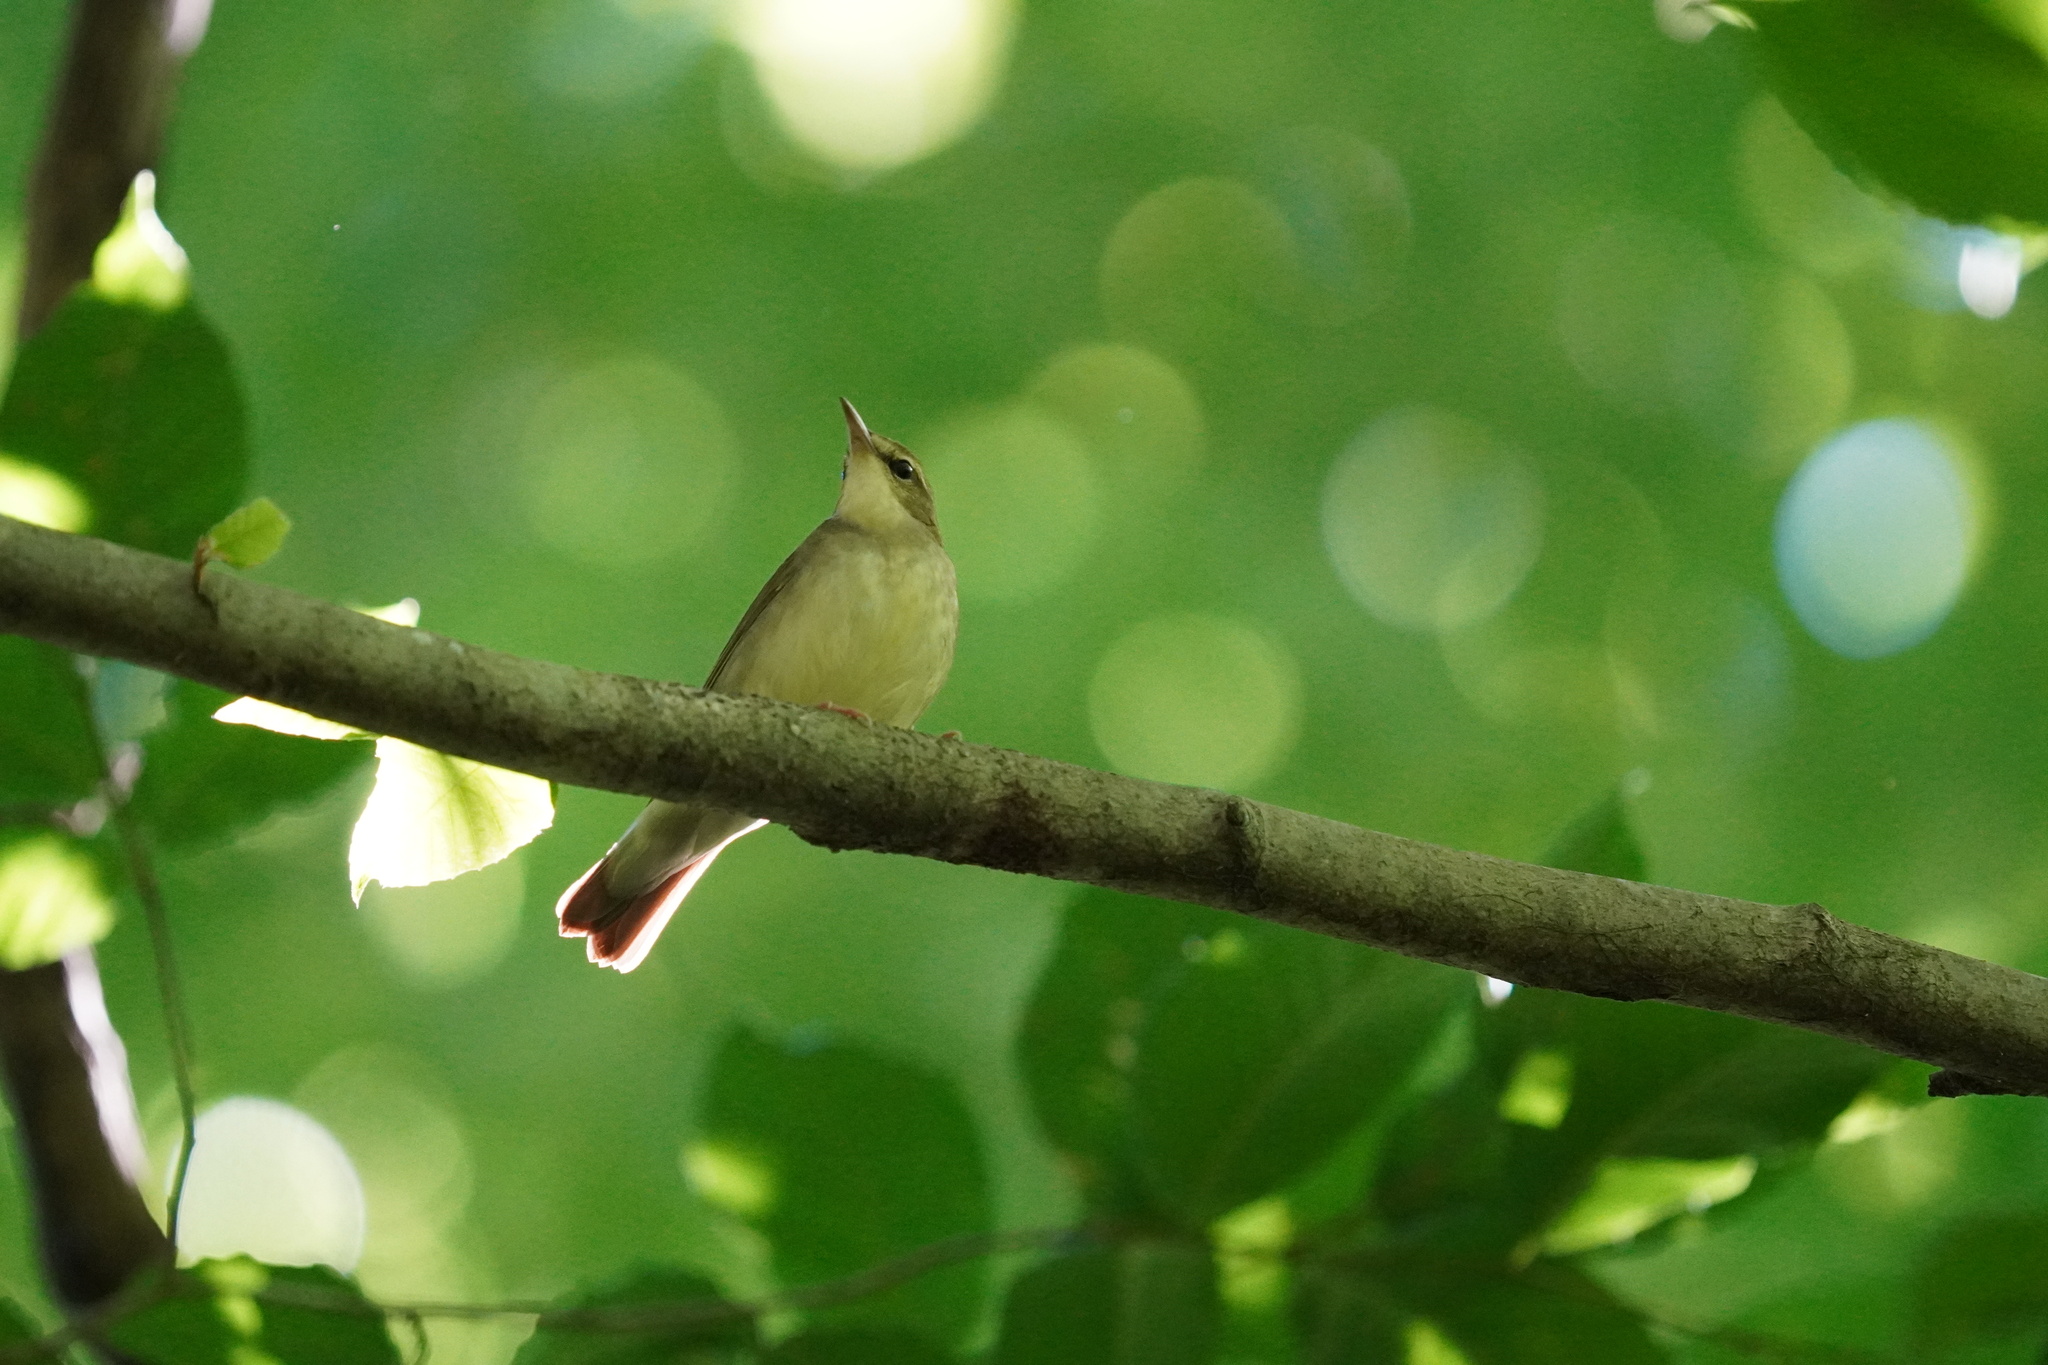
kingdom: Animalia
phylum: Chordata
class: Aves
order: Passeriformes
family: Parulidae
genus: Limnothlypis
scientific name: Limnothlypis swainsonii
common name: Swainson's warbler
